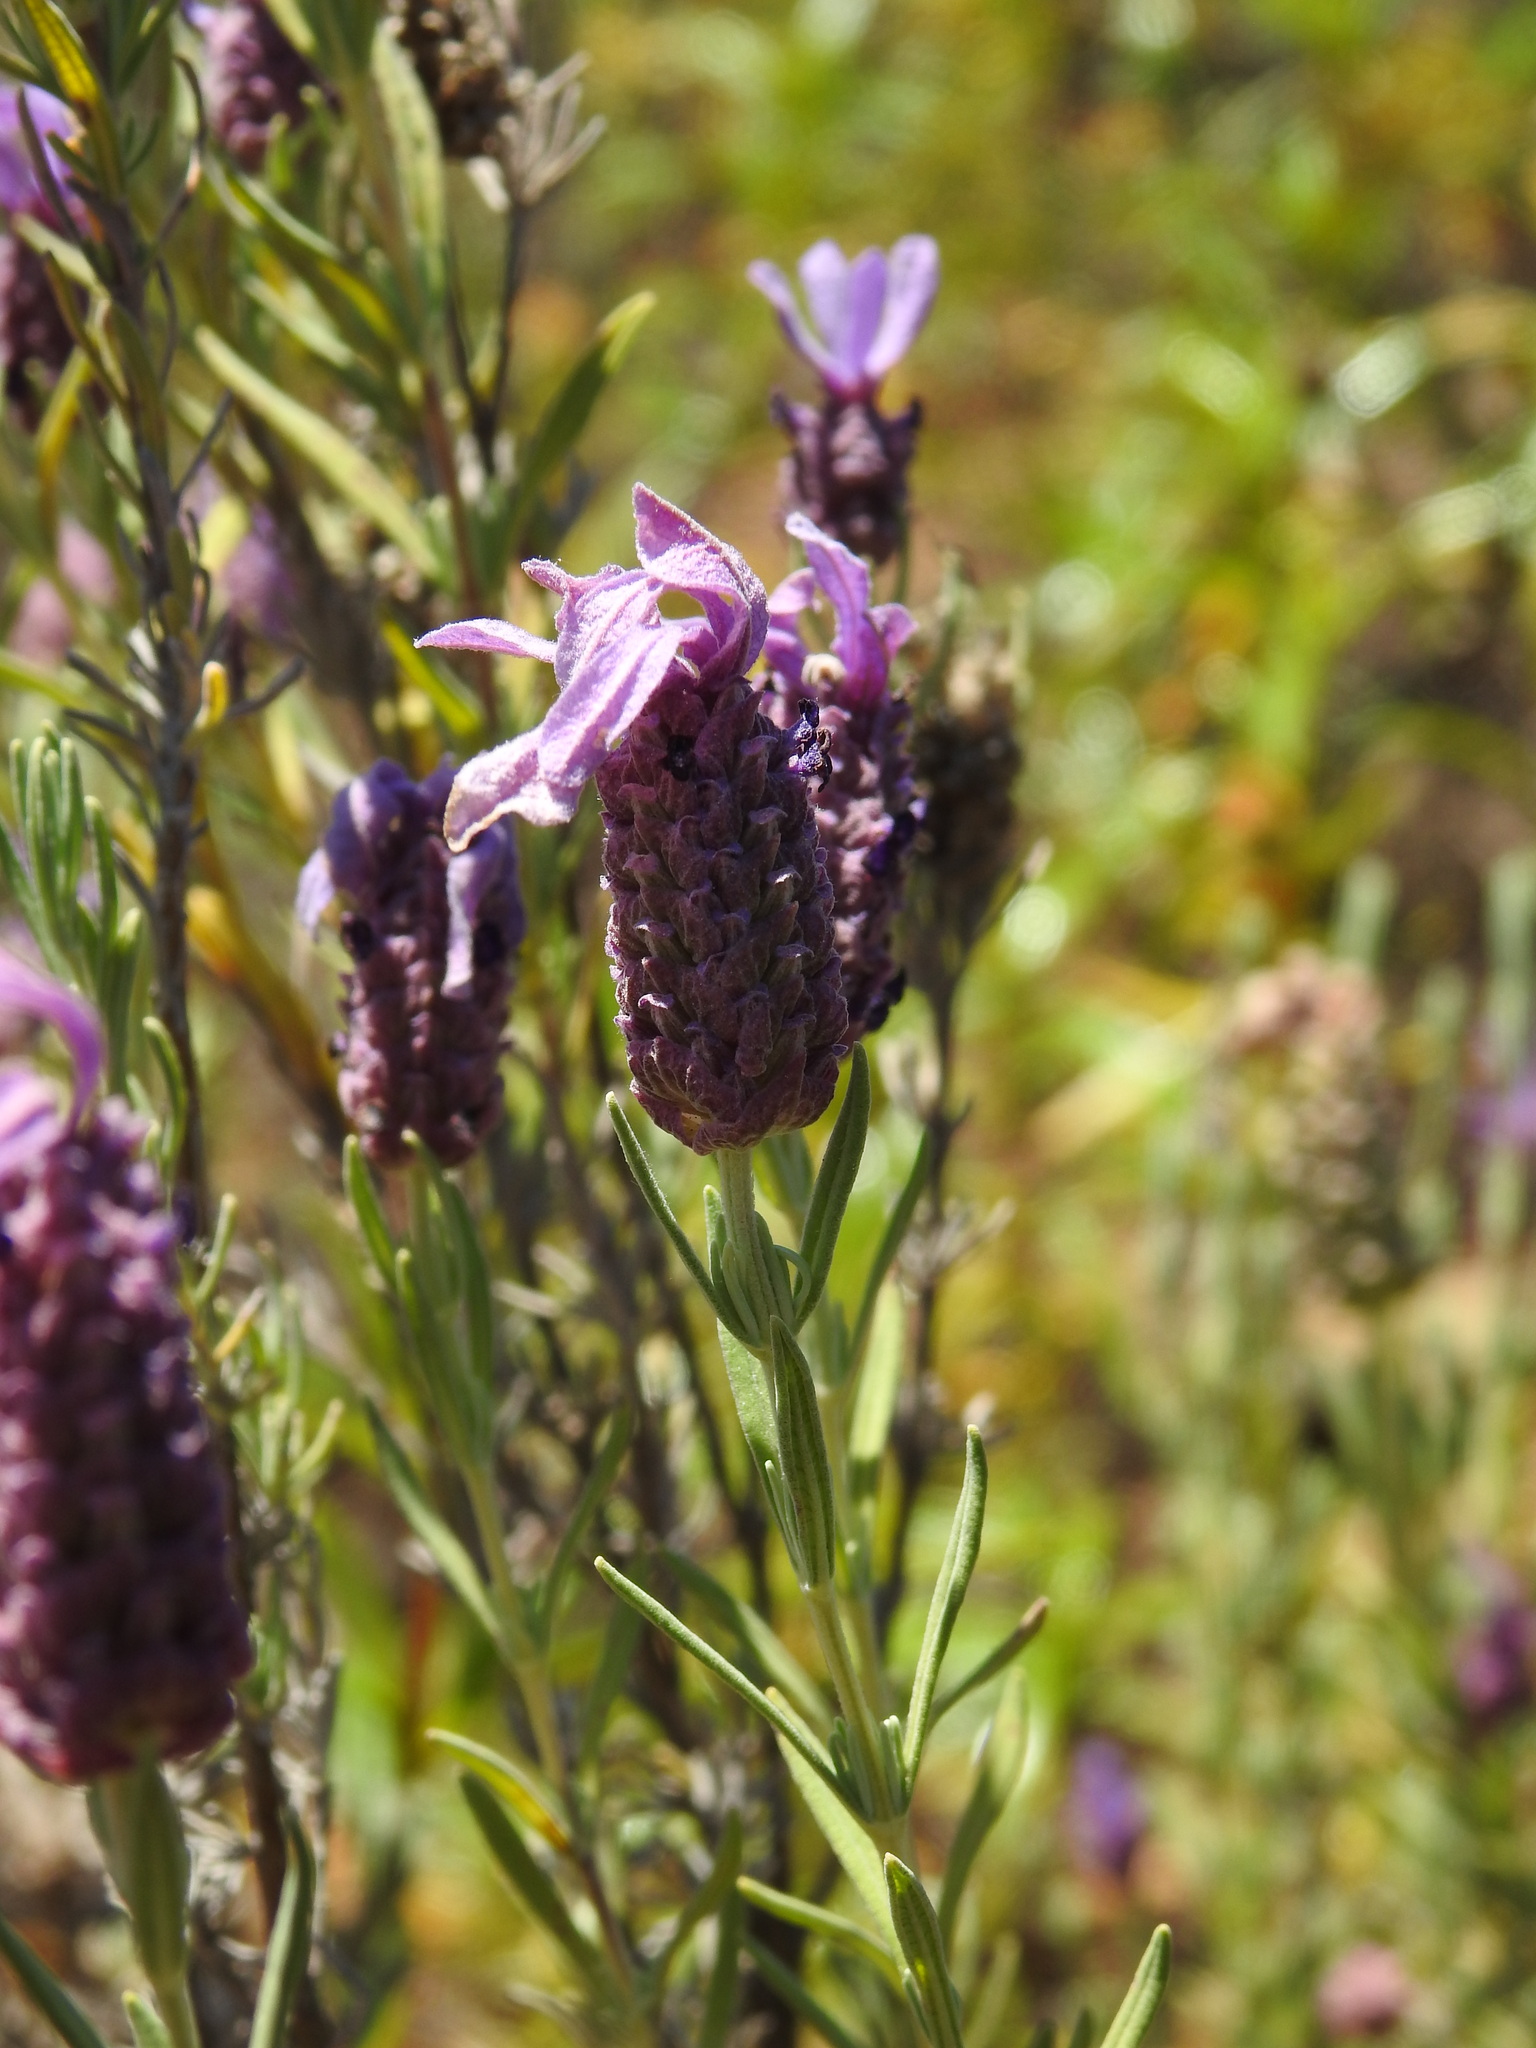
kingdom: Plantae
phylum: Tracheophyta
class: Magnoliopsida
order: Lamiales
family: Lamiaceae
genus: Lavandula
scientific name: Lavandula stoechas
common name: French lavender
